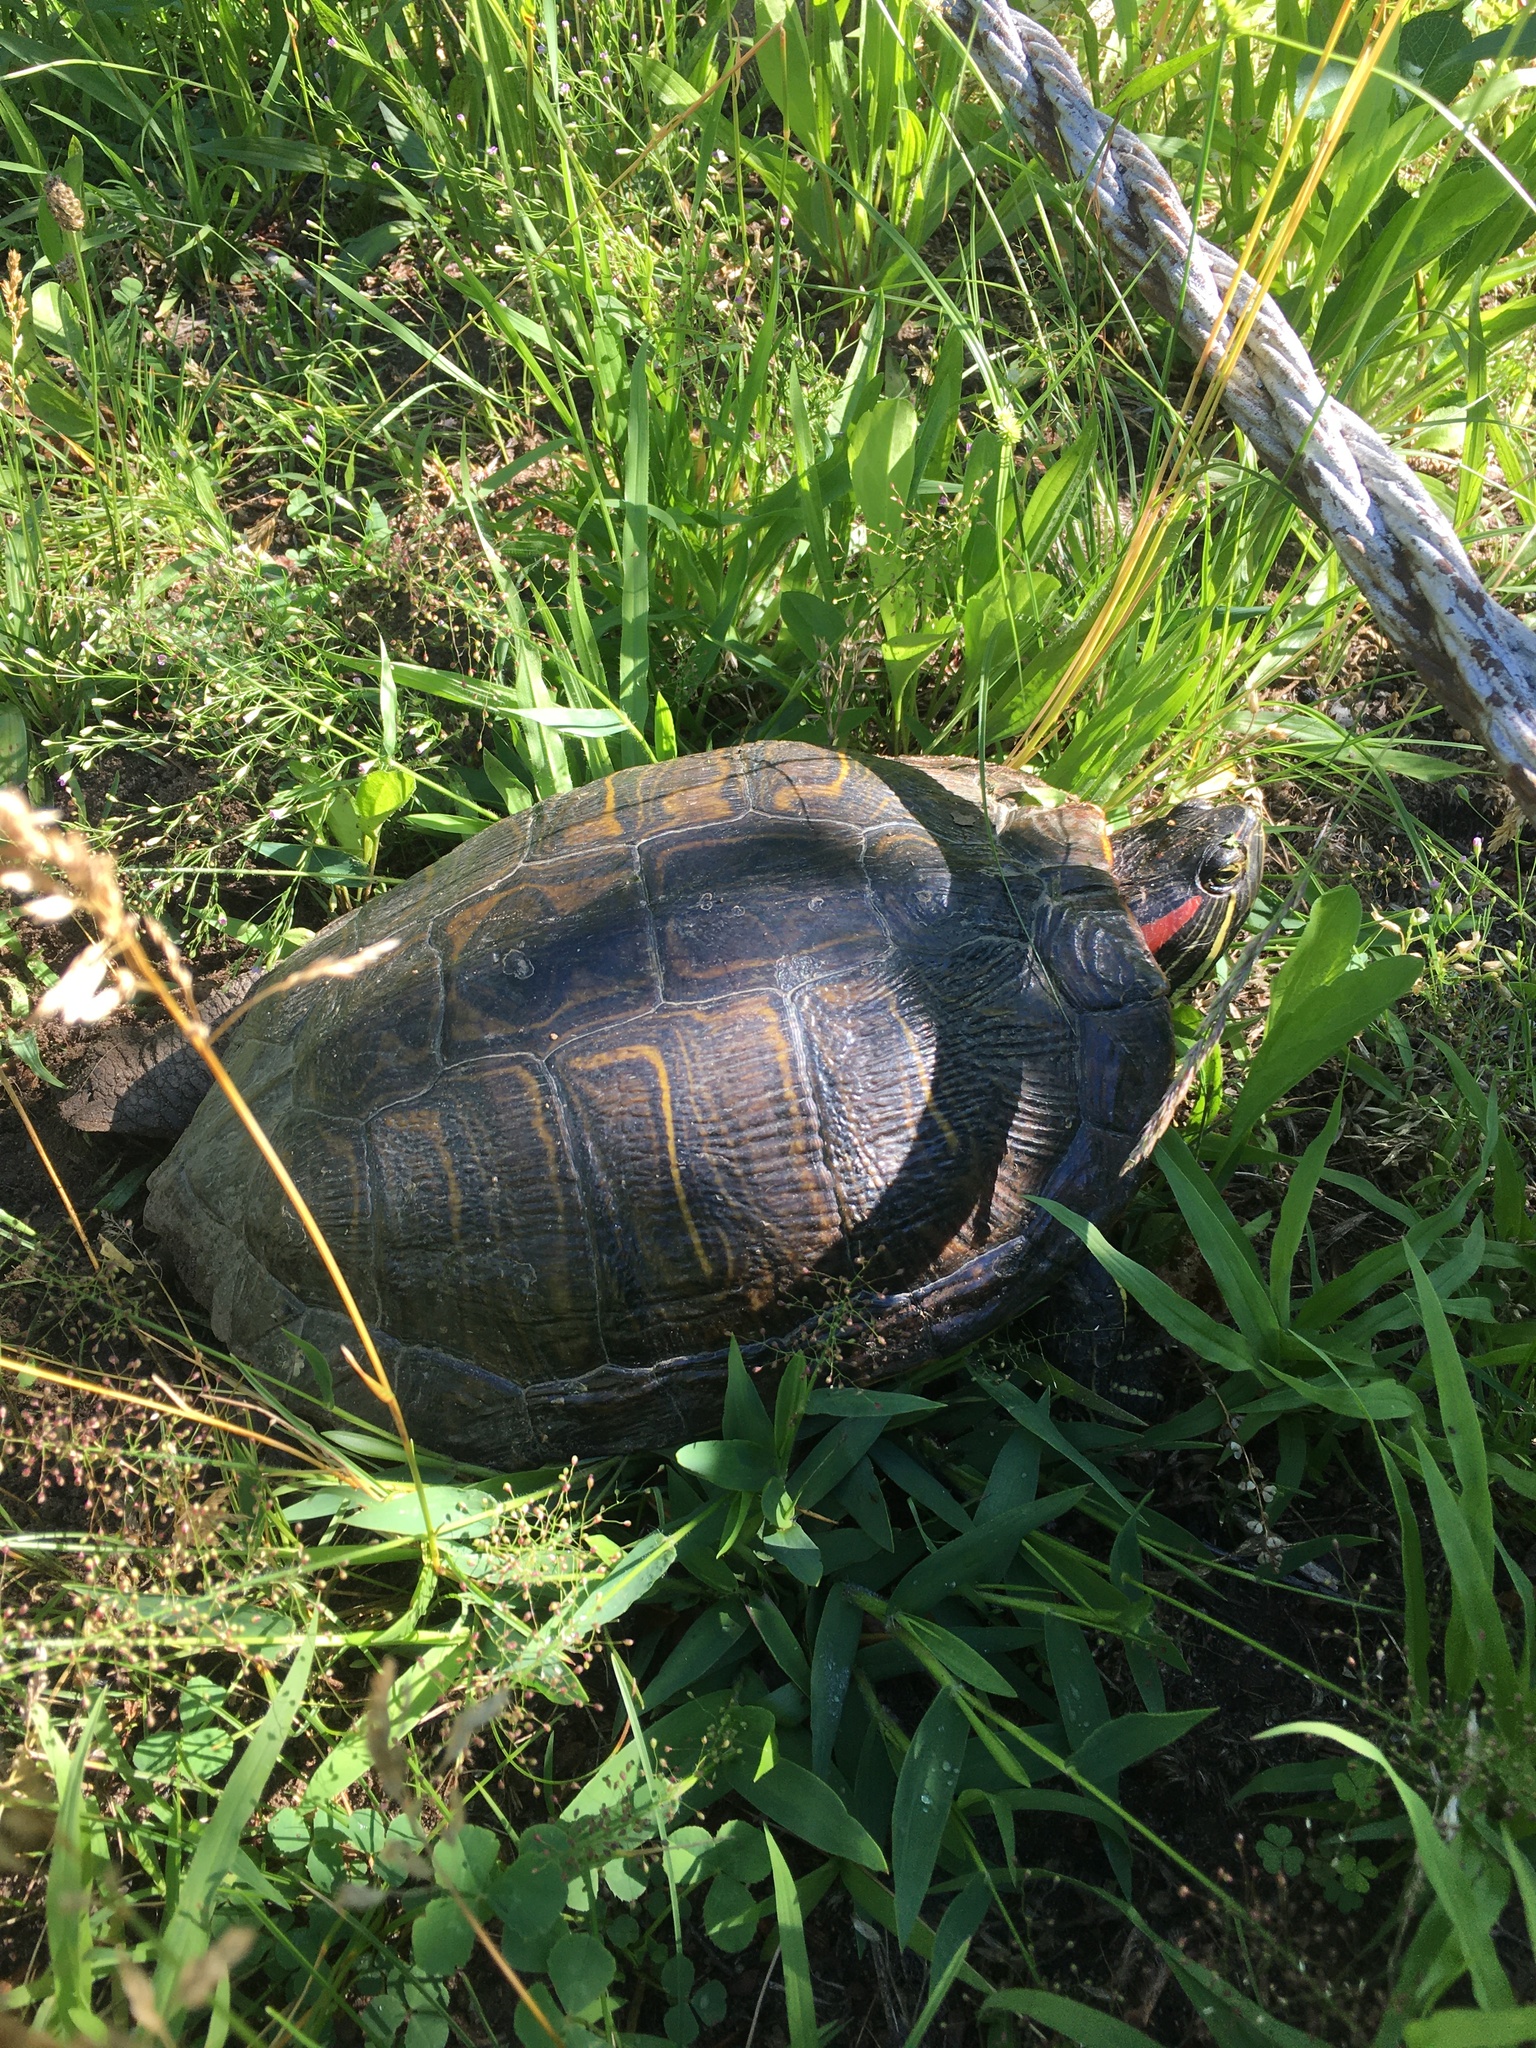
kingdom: Animalia
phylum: Chordata
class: Testudines
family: Emydidae
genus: Trachemys
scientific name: Trachemys scripta
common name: Slider
